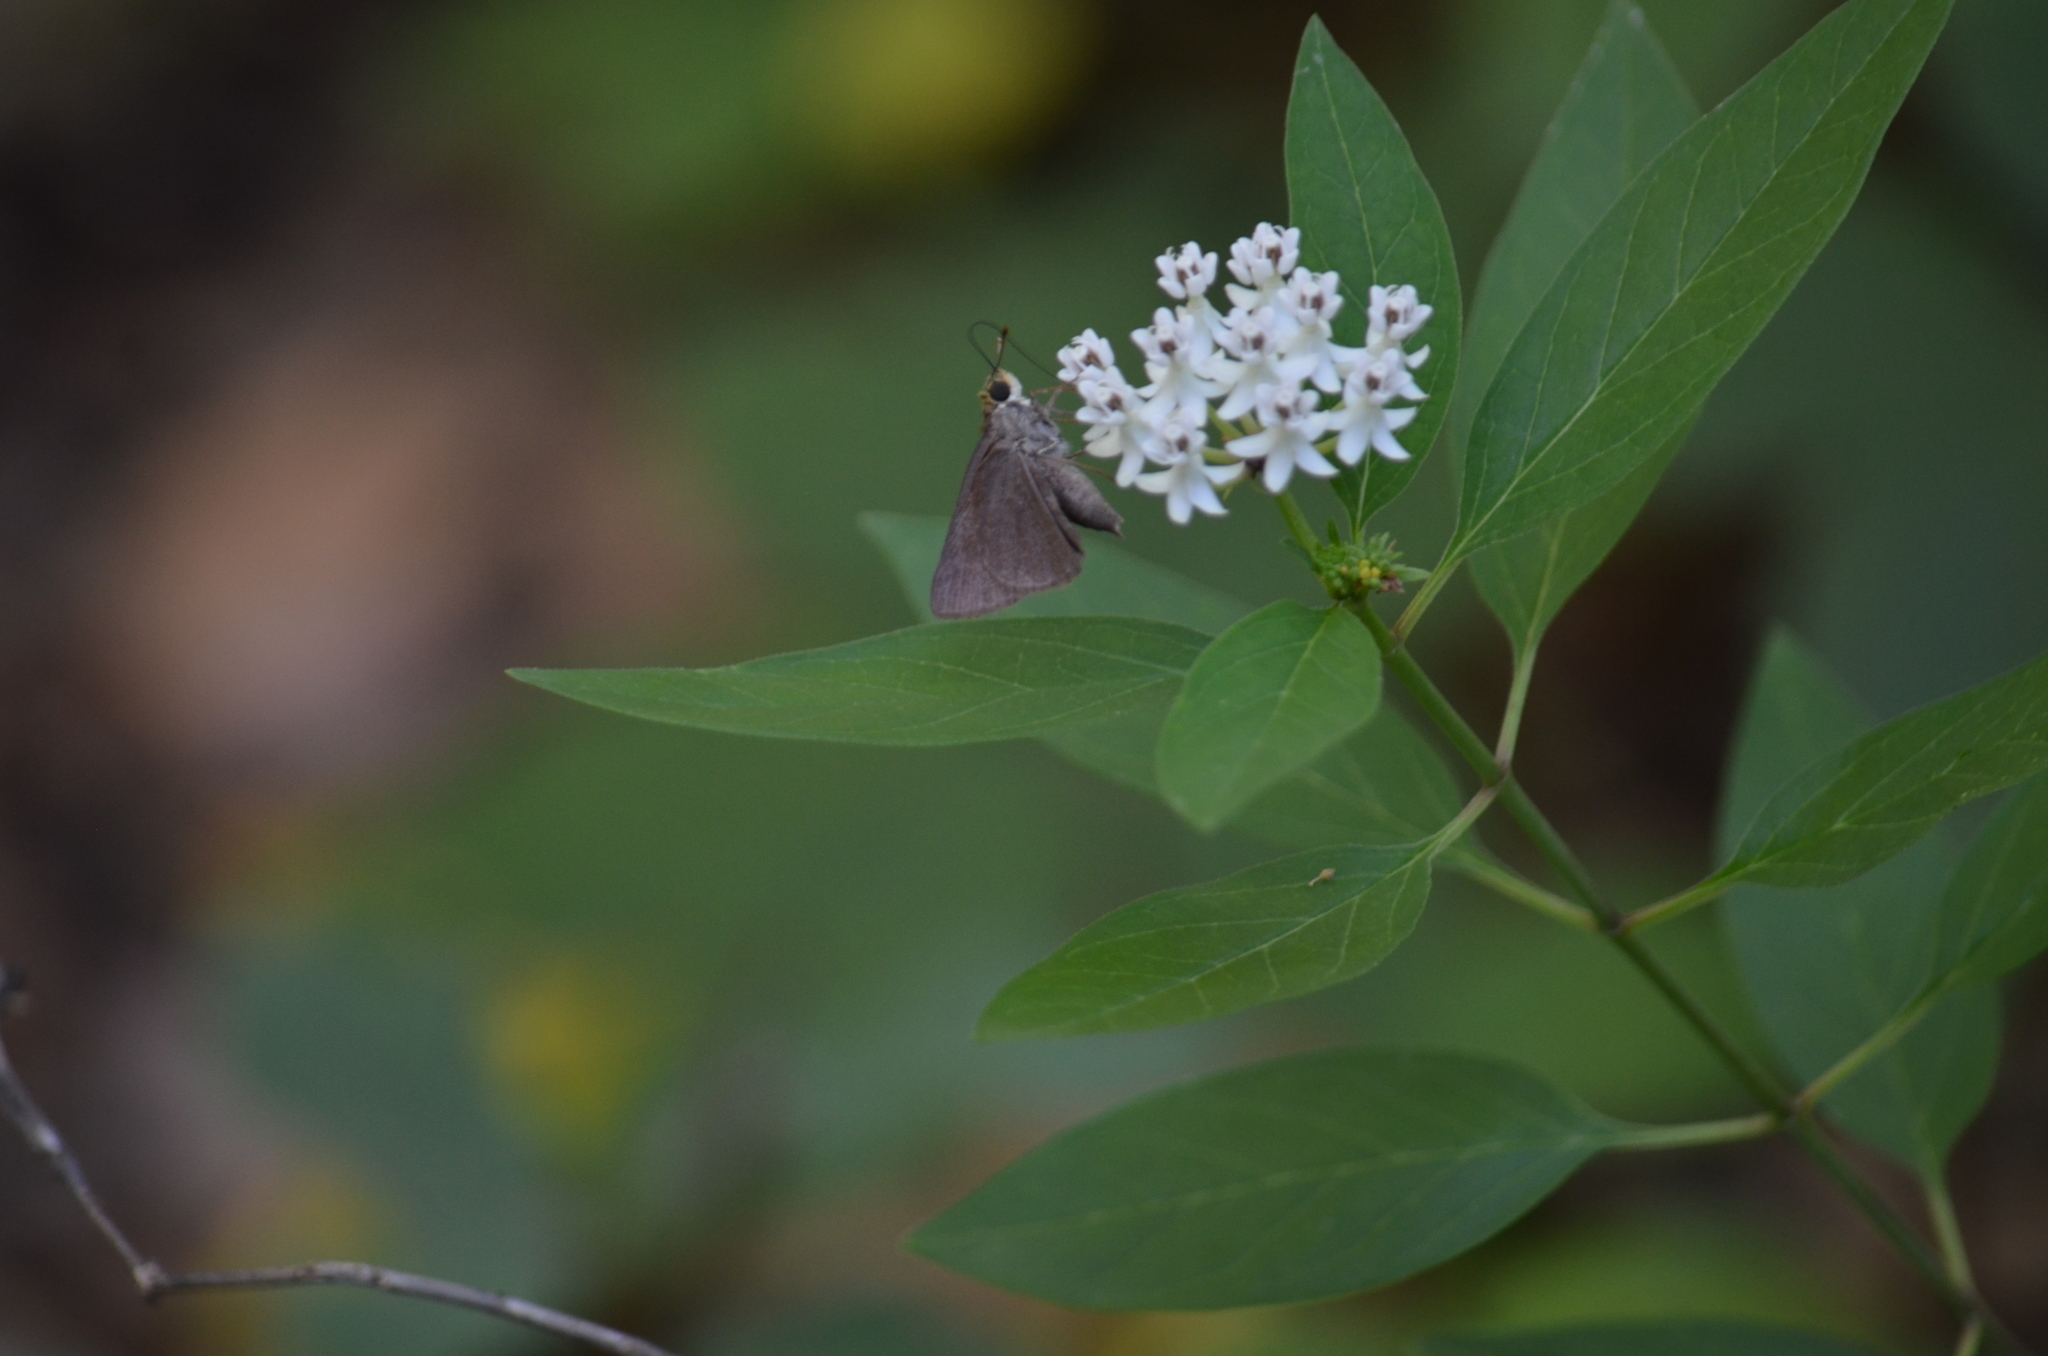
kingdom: Animalia
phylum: Arthropoda
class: Insecta
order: Lepidoptera
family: Hesperiidae
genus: Euphyes
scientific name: Euphyes vestris
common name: Dun skipper
